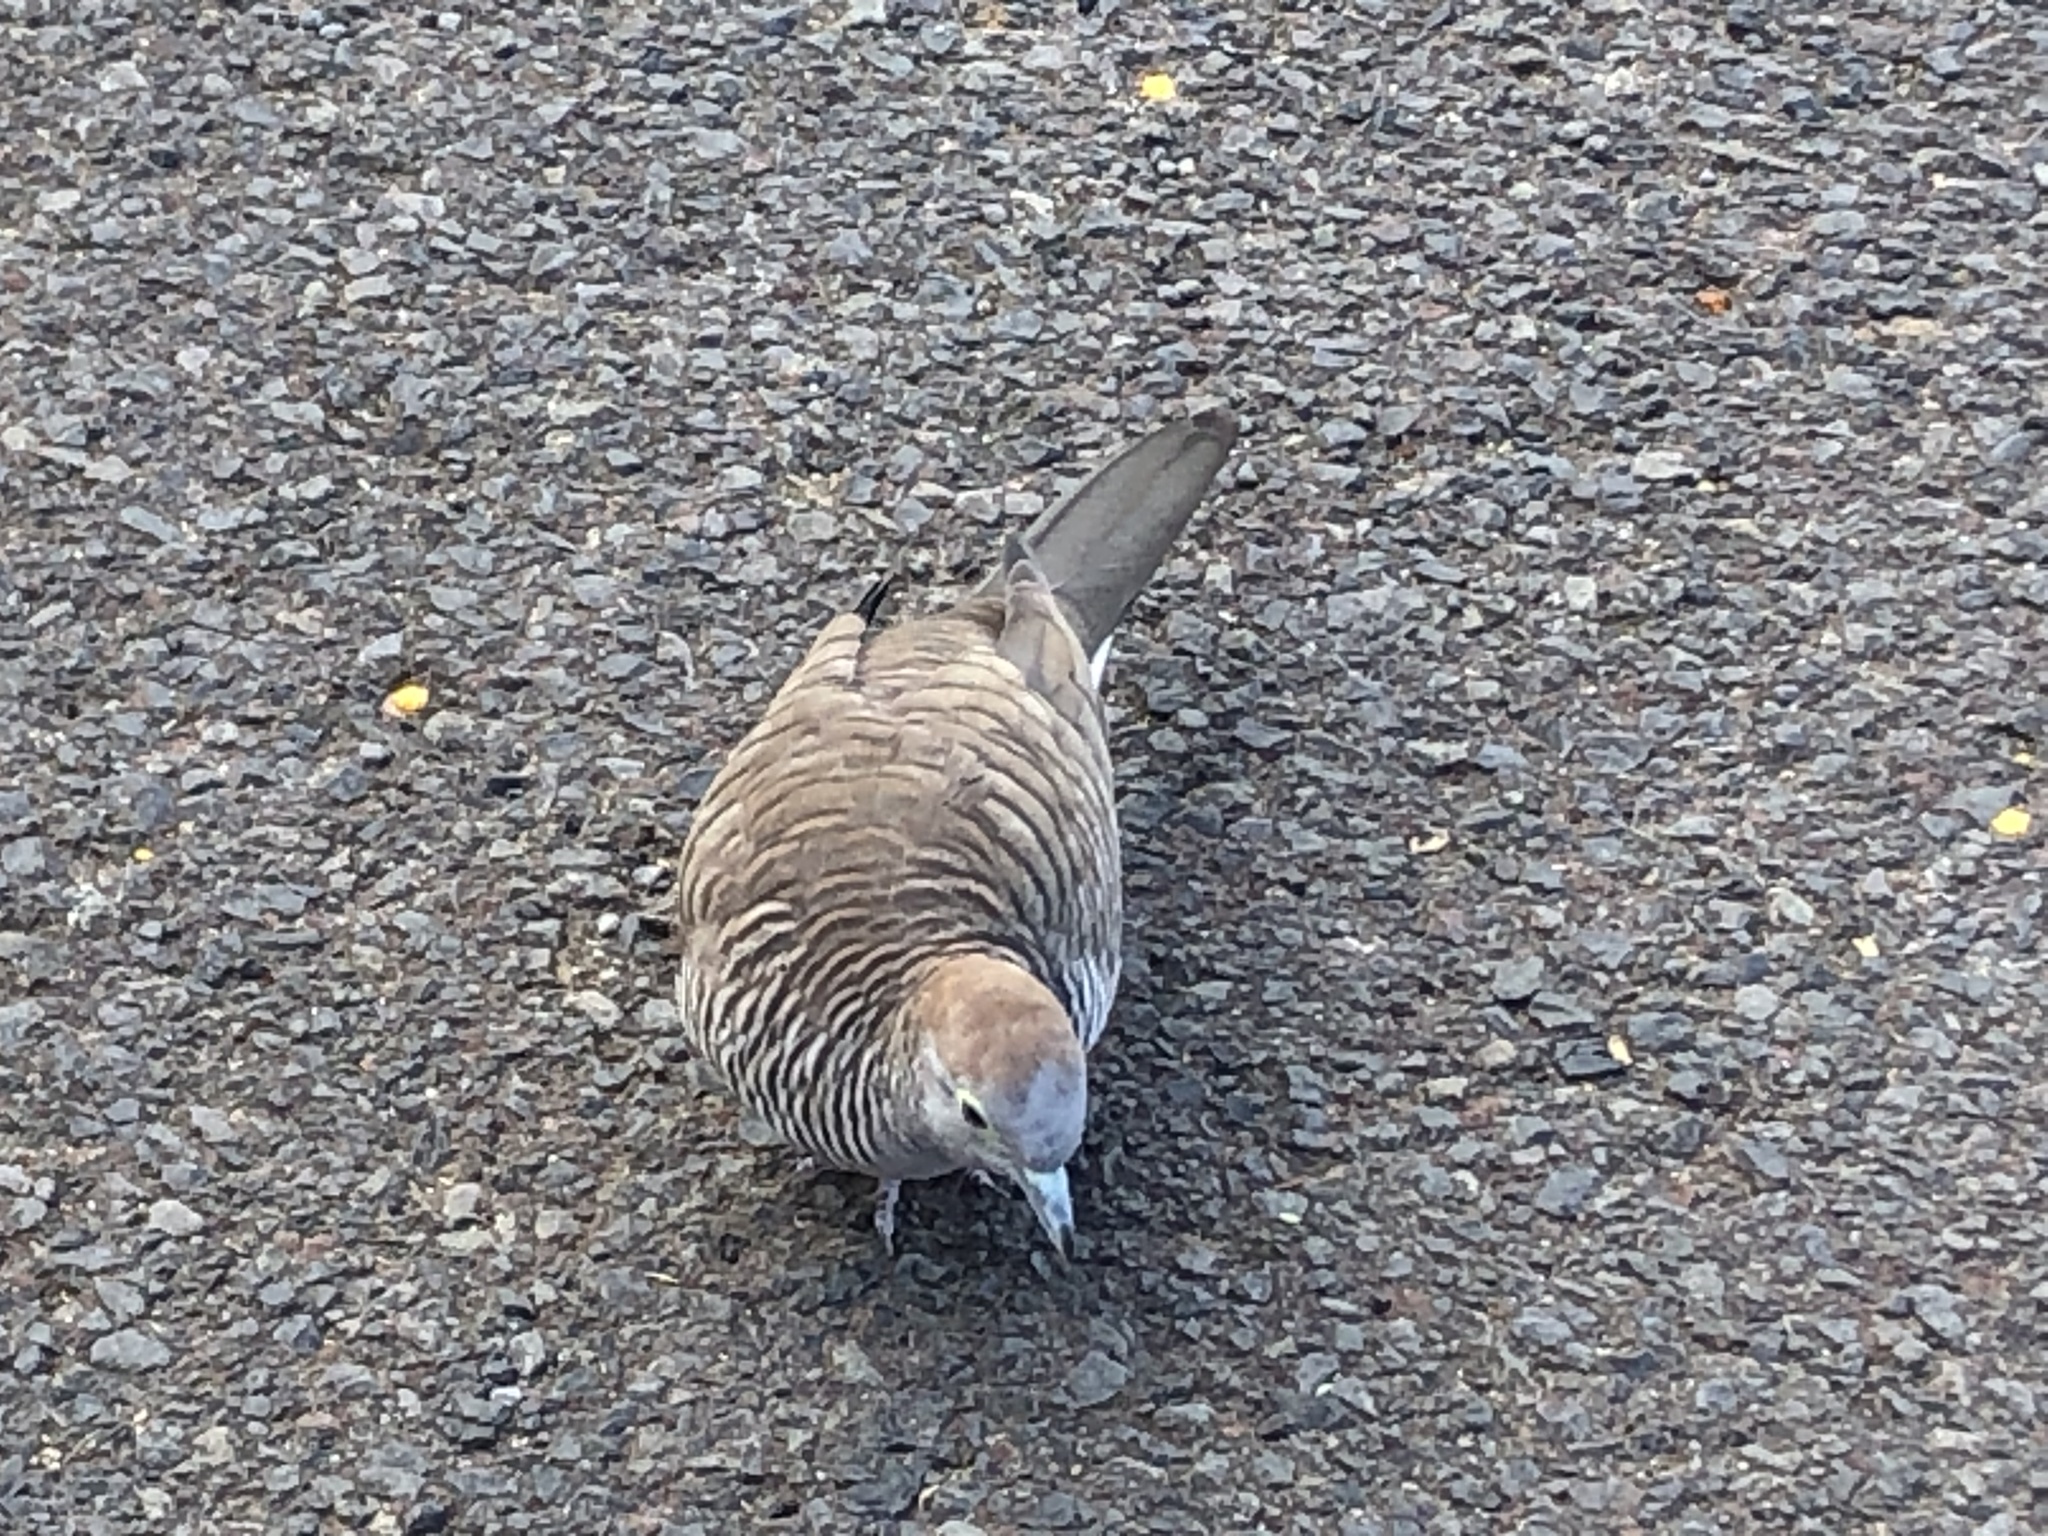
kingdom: Animalia
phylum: Chordata
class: Aves
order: Columbiformes
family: Columbidae
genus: Geopelia
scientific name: Geopelia striata
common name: Zebra dove
